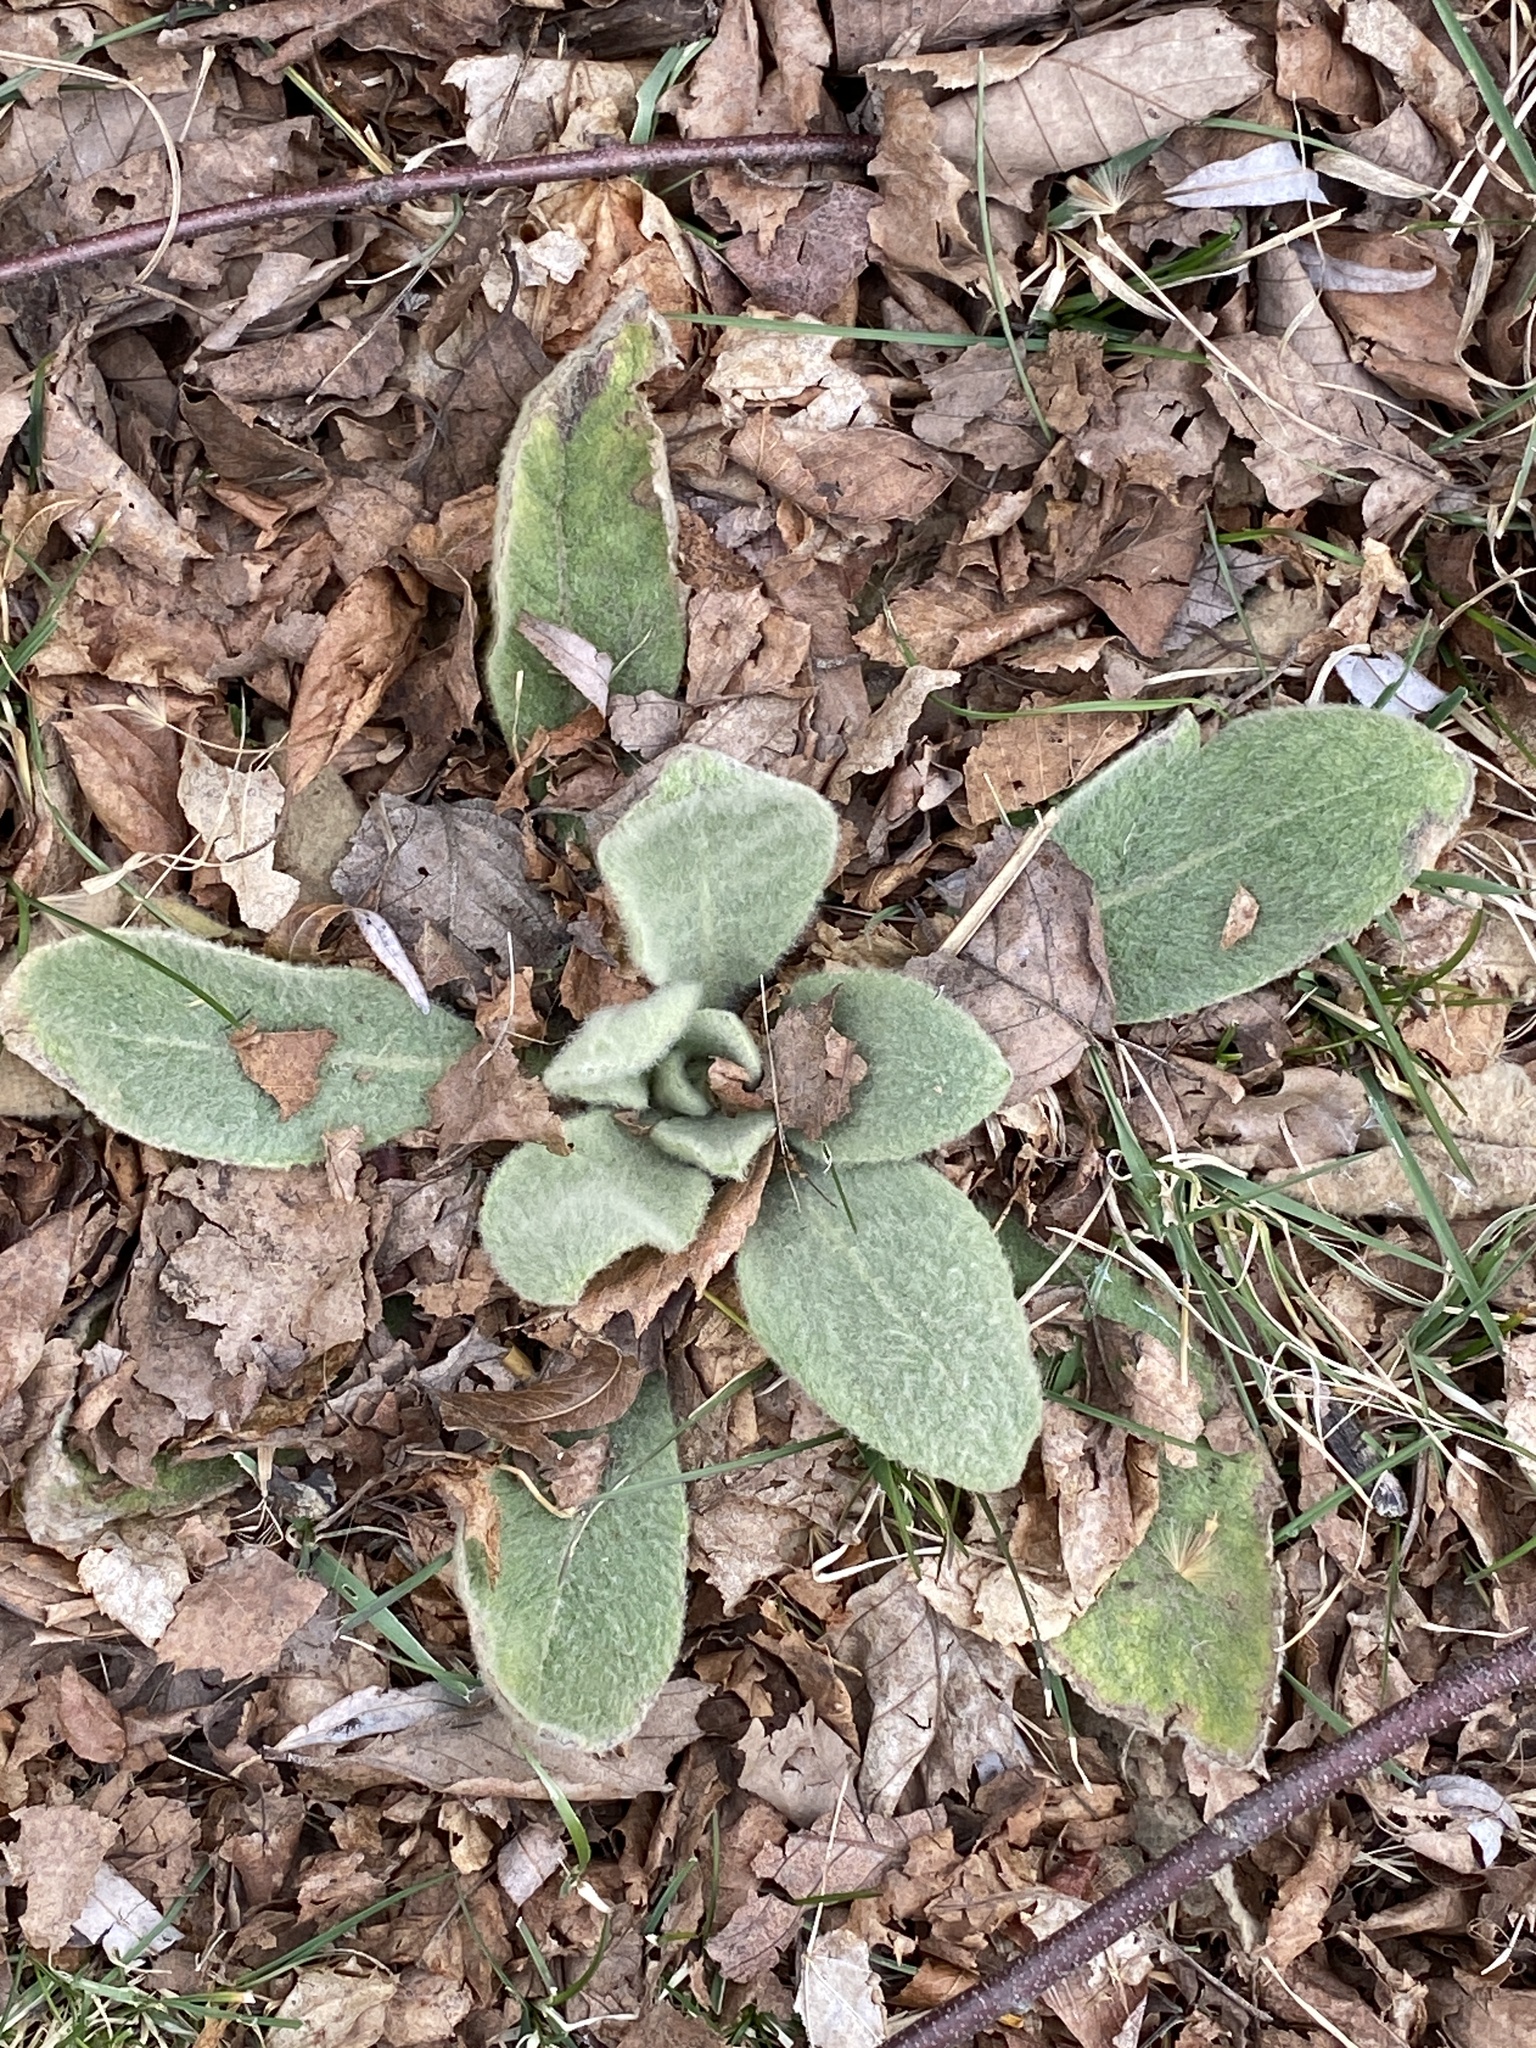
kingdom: Plantae
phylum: Tracheophyta
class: Magnoliopsida
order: Lamiales
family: Scrophulariaceae
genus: Verbascum
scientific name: Verbascum thapsus
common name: Common mullein
